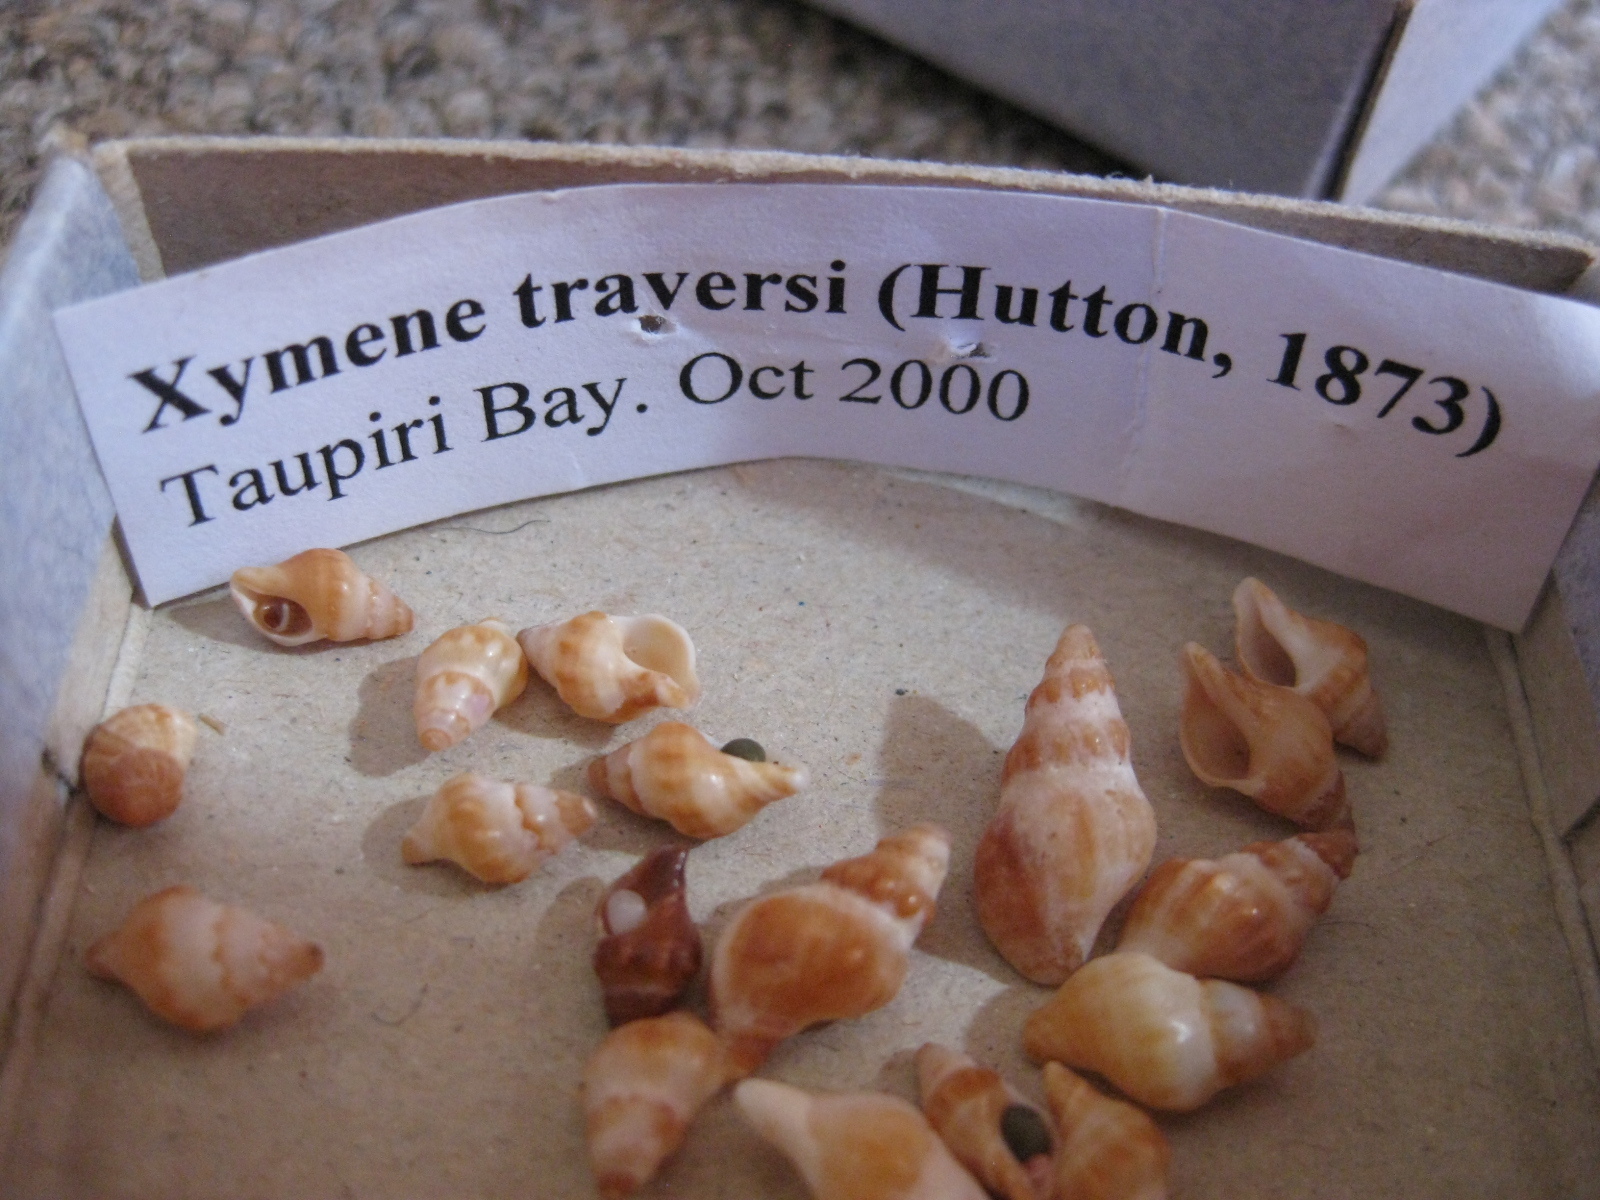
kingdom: Animalia
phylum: Mollusca
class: Gastropoda
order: Neogastropoda
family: Muricidae
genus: Lamellitrophon
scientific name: Lamellitrophon traversi
